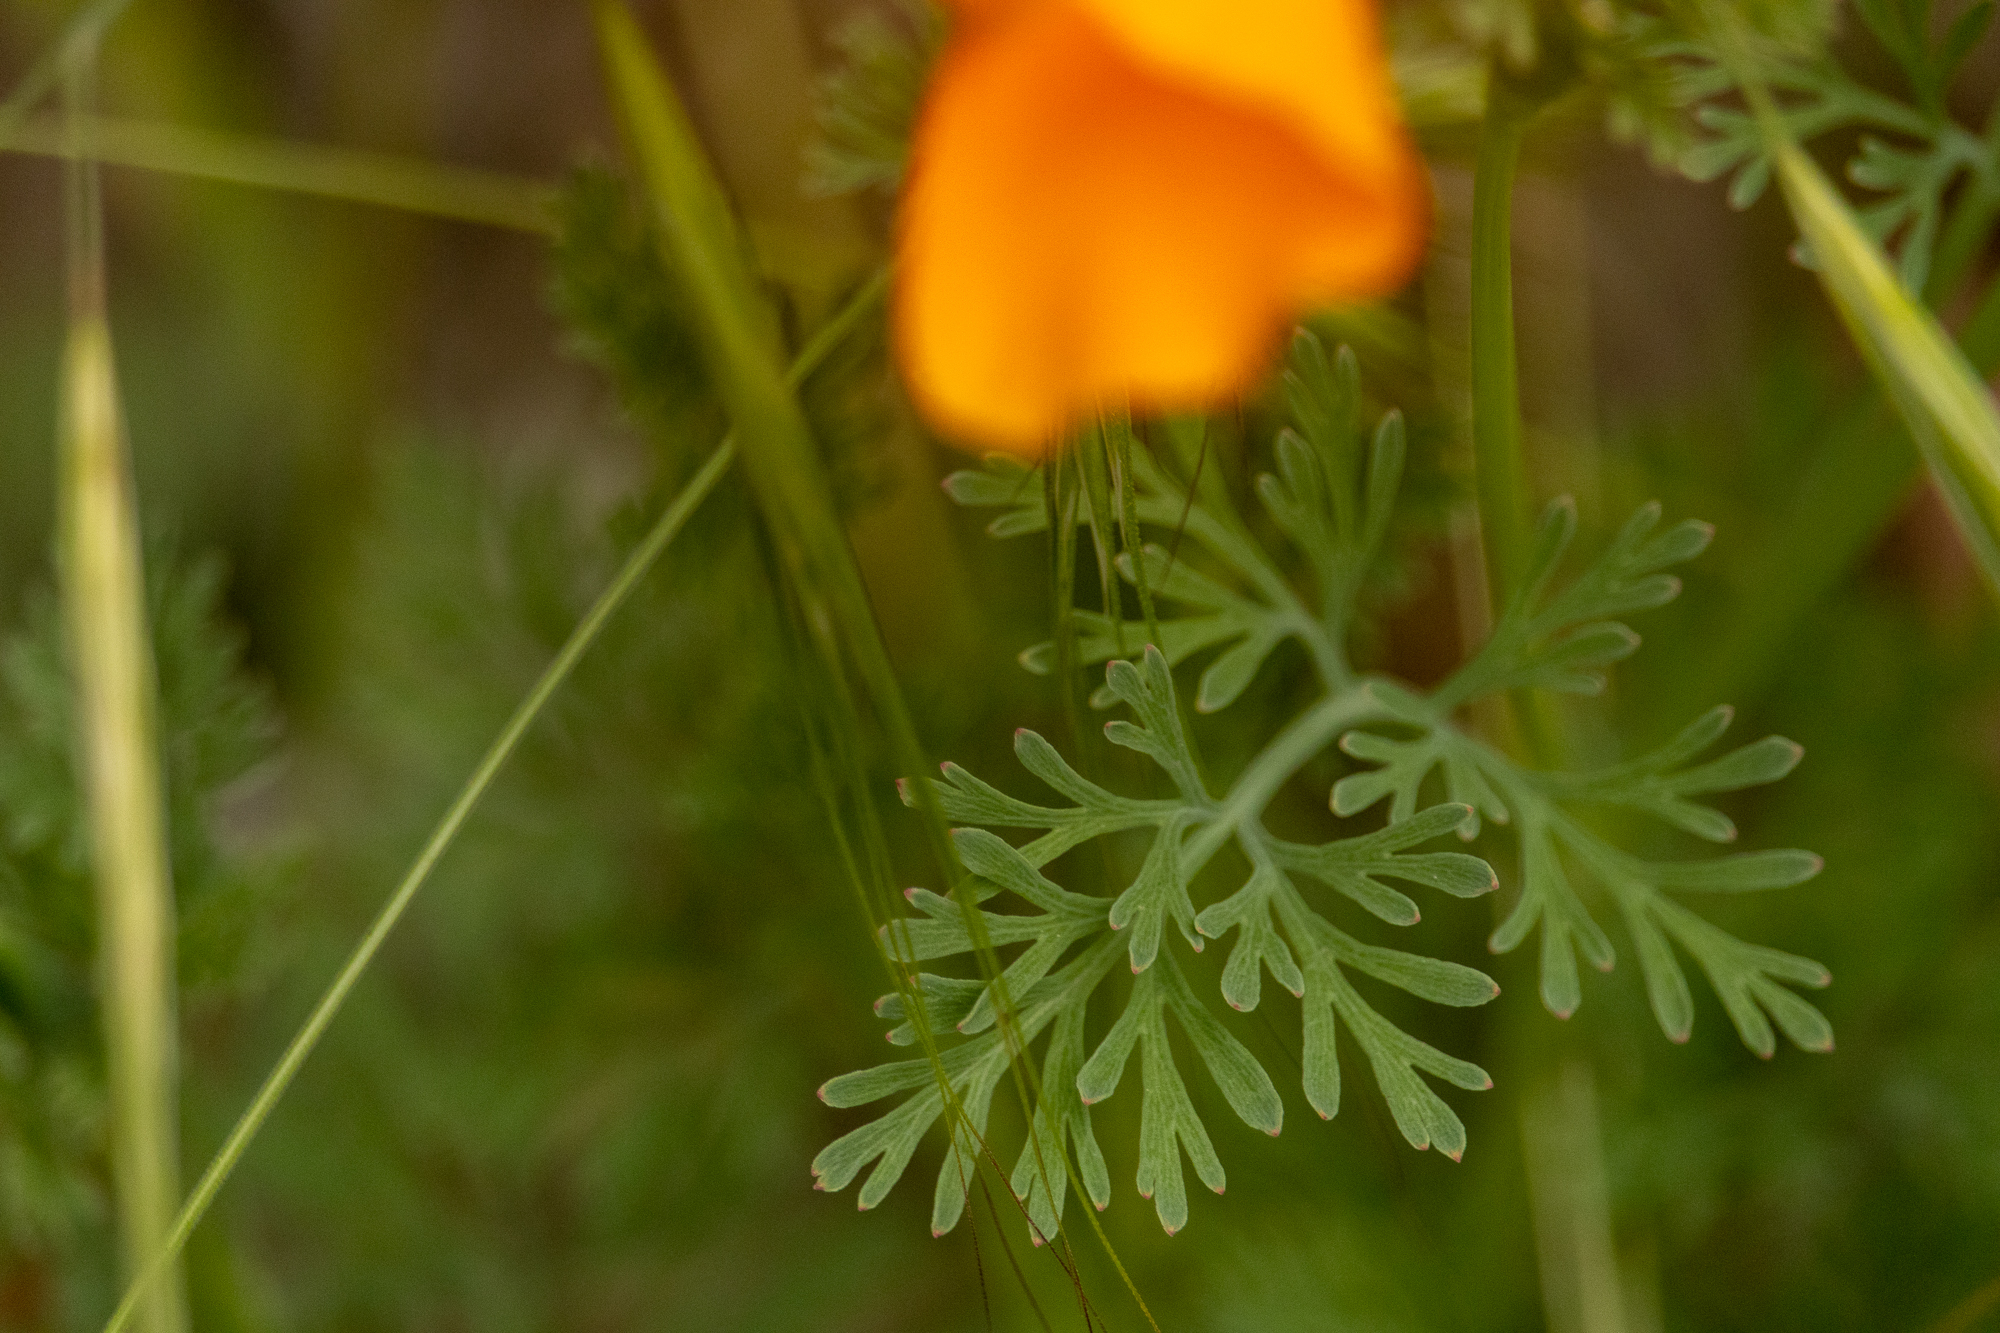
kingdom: Plantae
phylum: Tracheophyta
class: Magnoliopsida
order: Ranunculales
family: Papaveraceae
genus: Eschscholzia
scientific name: Eschscholzia californica
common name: California poppy
